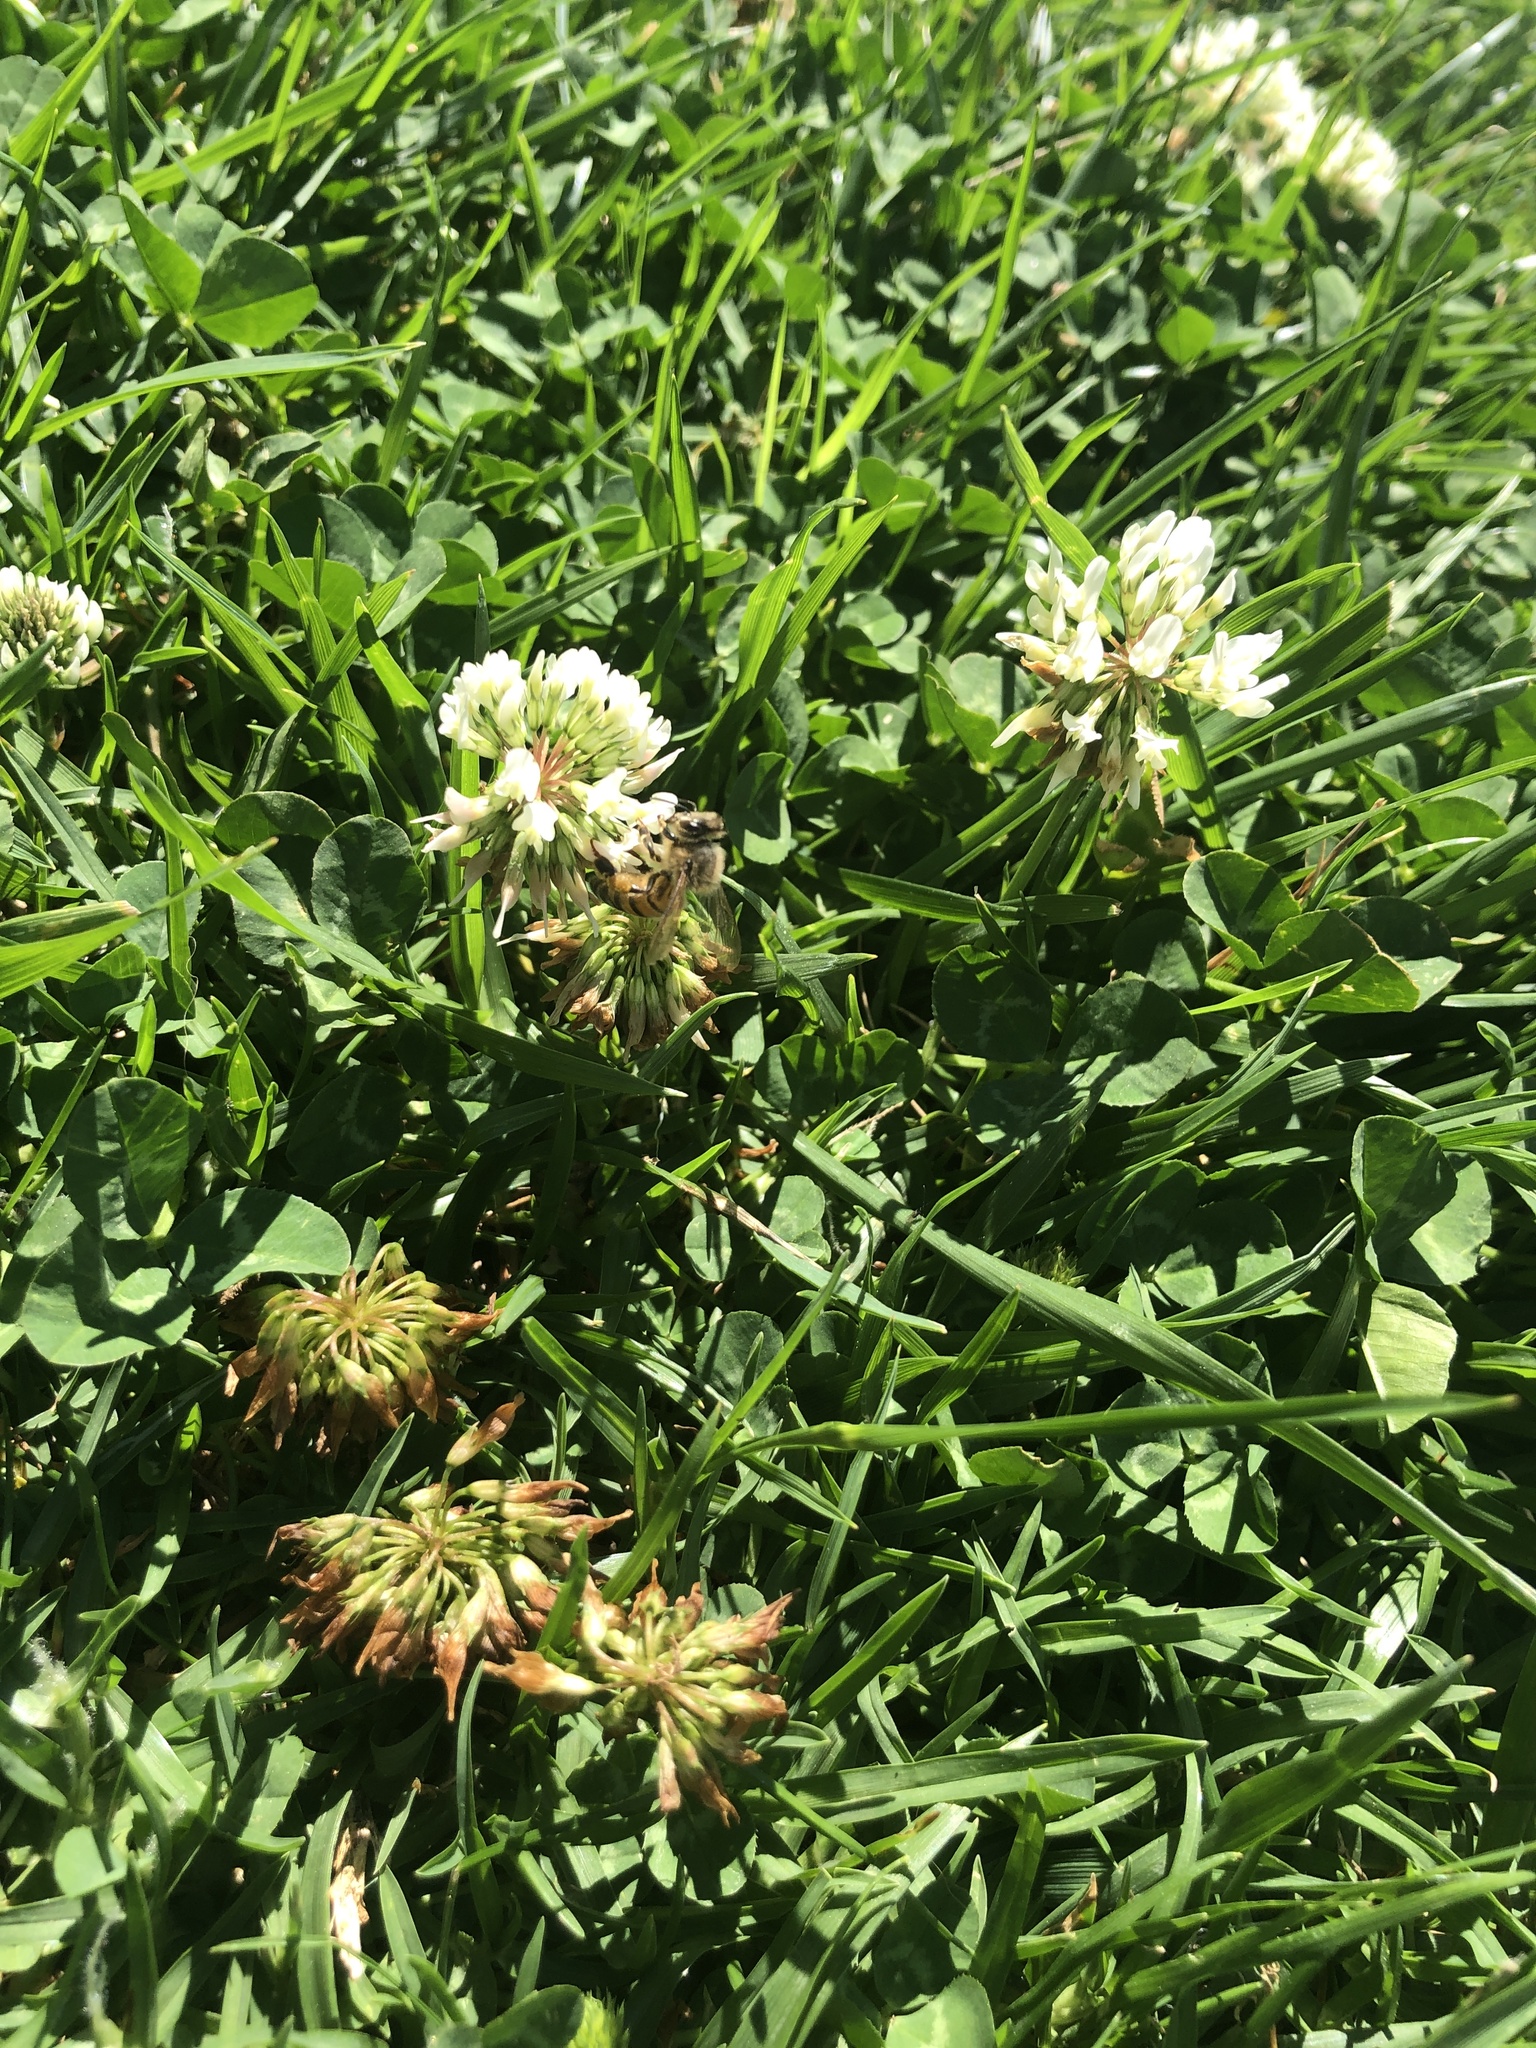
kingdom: Plantae
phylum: Tracheophyta
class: Magnoliopsida
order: Fabales
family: Fabaceae
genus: Trifolium
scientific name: Trifolium repens
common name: White clover
